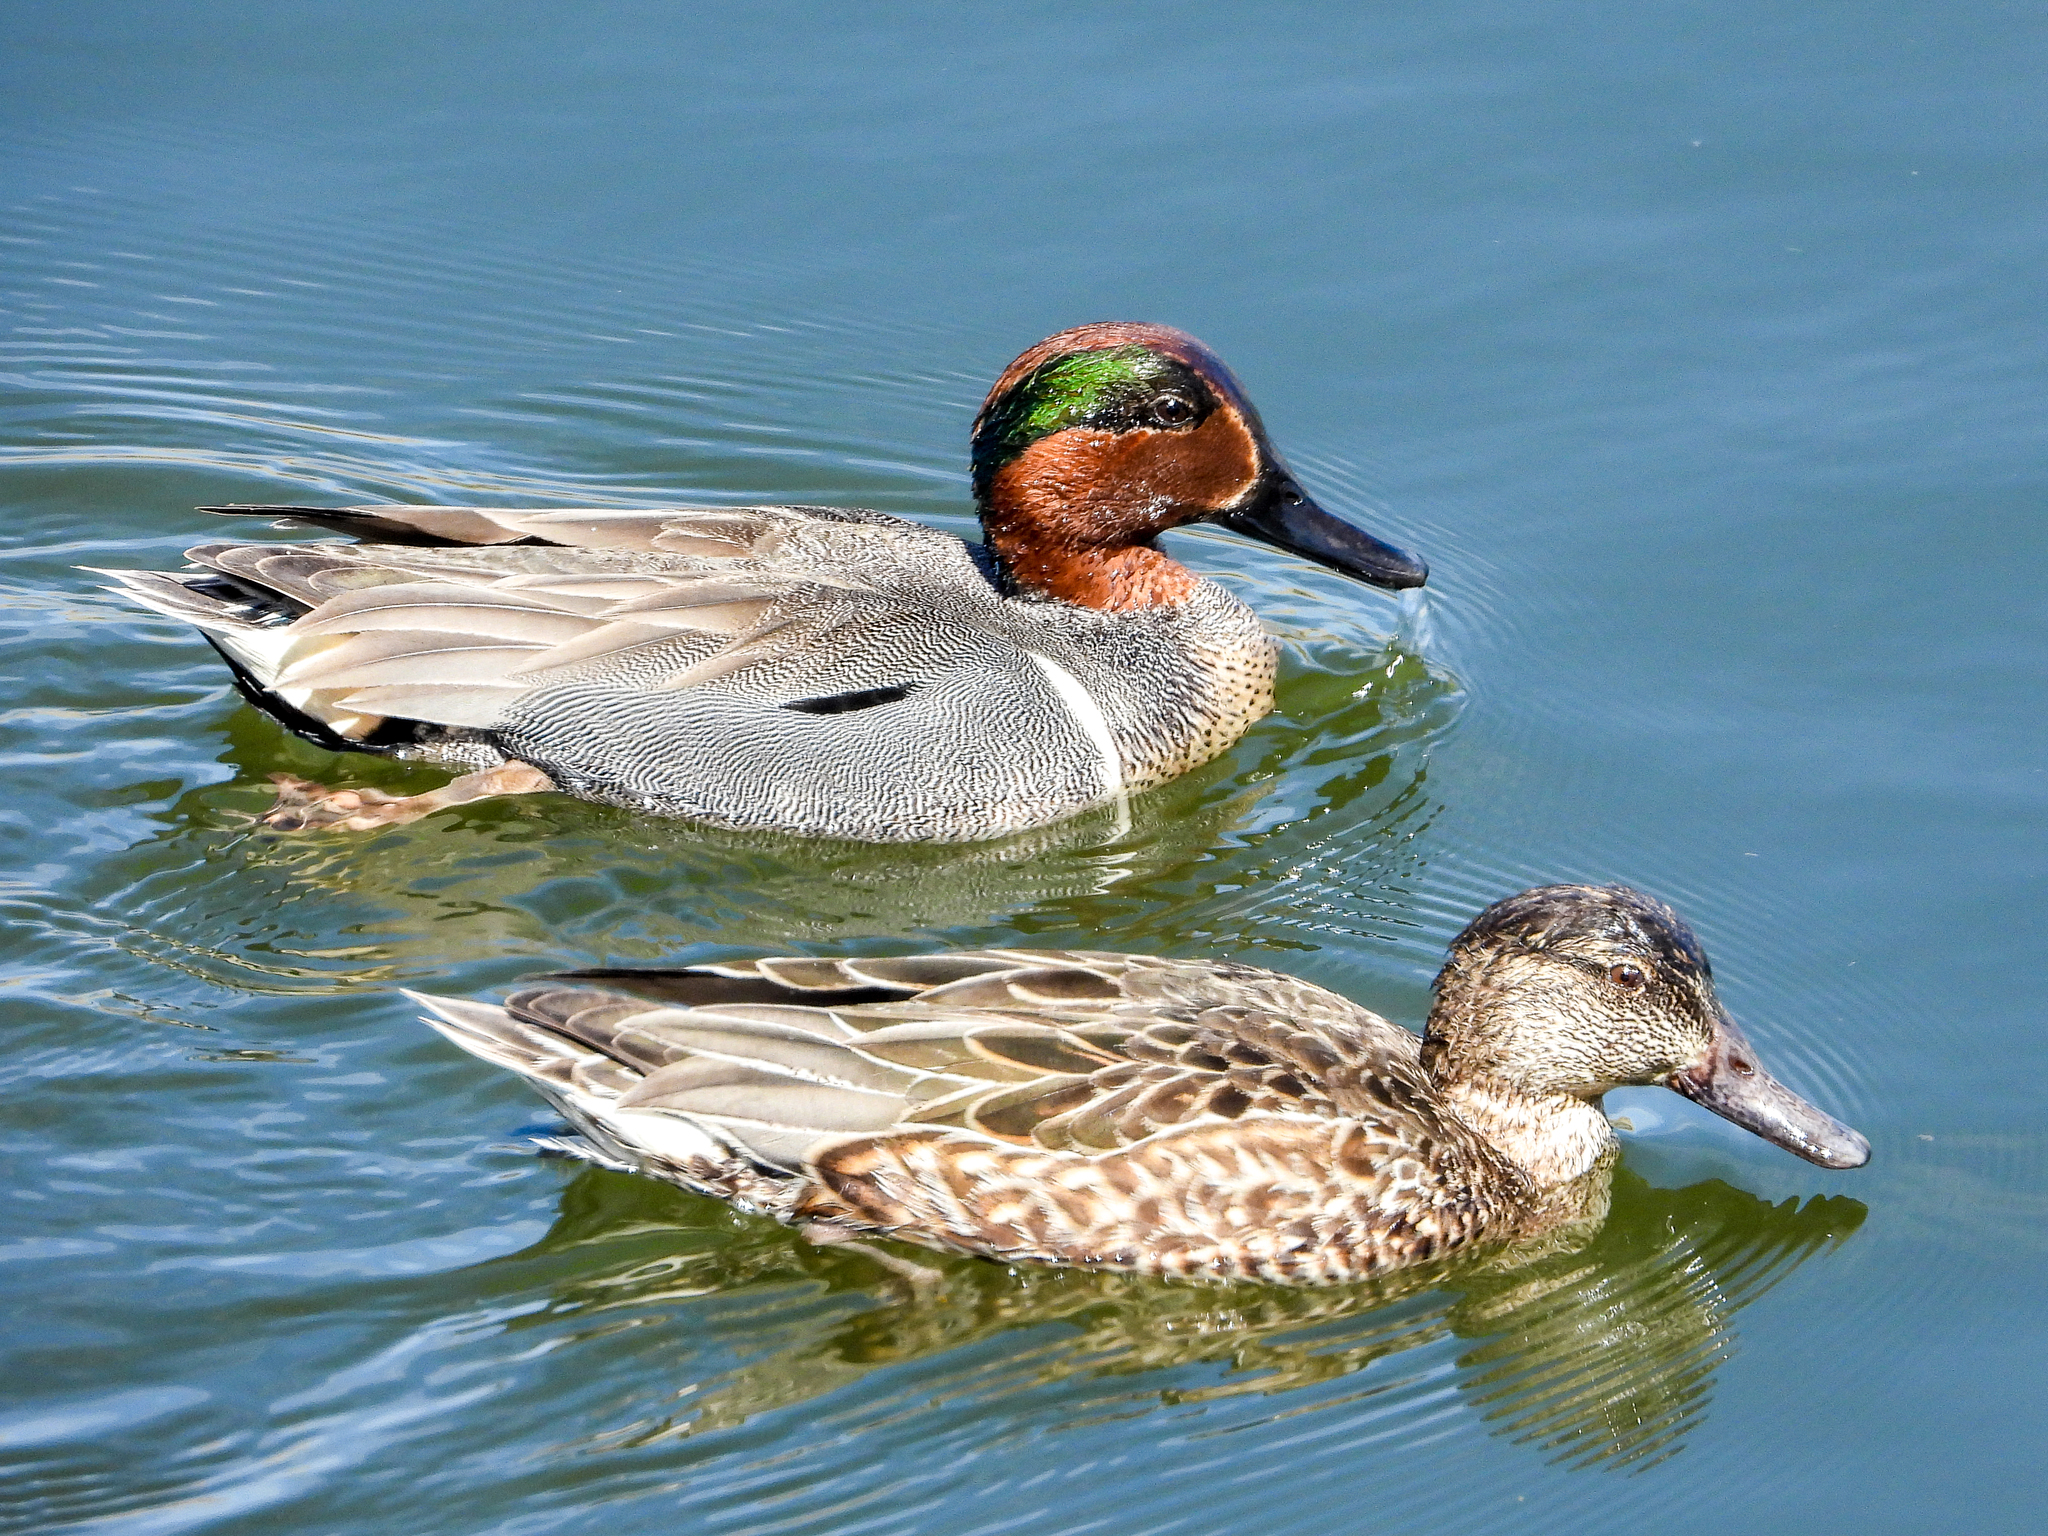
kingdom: Animalia
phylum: Chordata
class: Aves
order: Anseriformes
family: Anatidae
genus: Anas
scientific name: Anas crecca
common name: Eurasian teal
